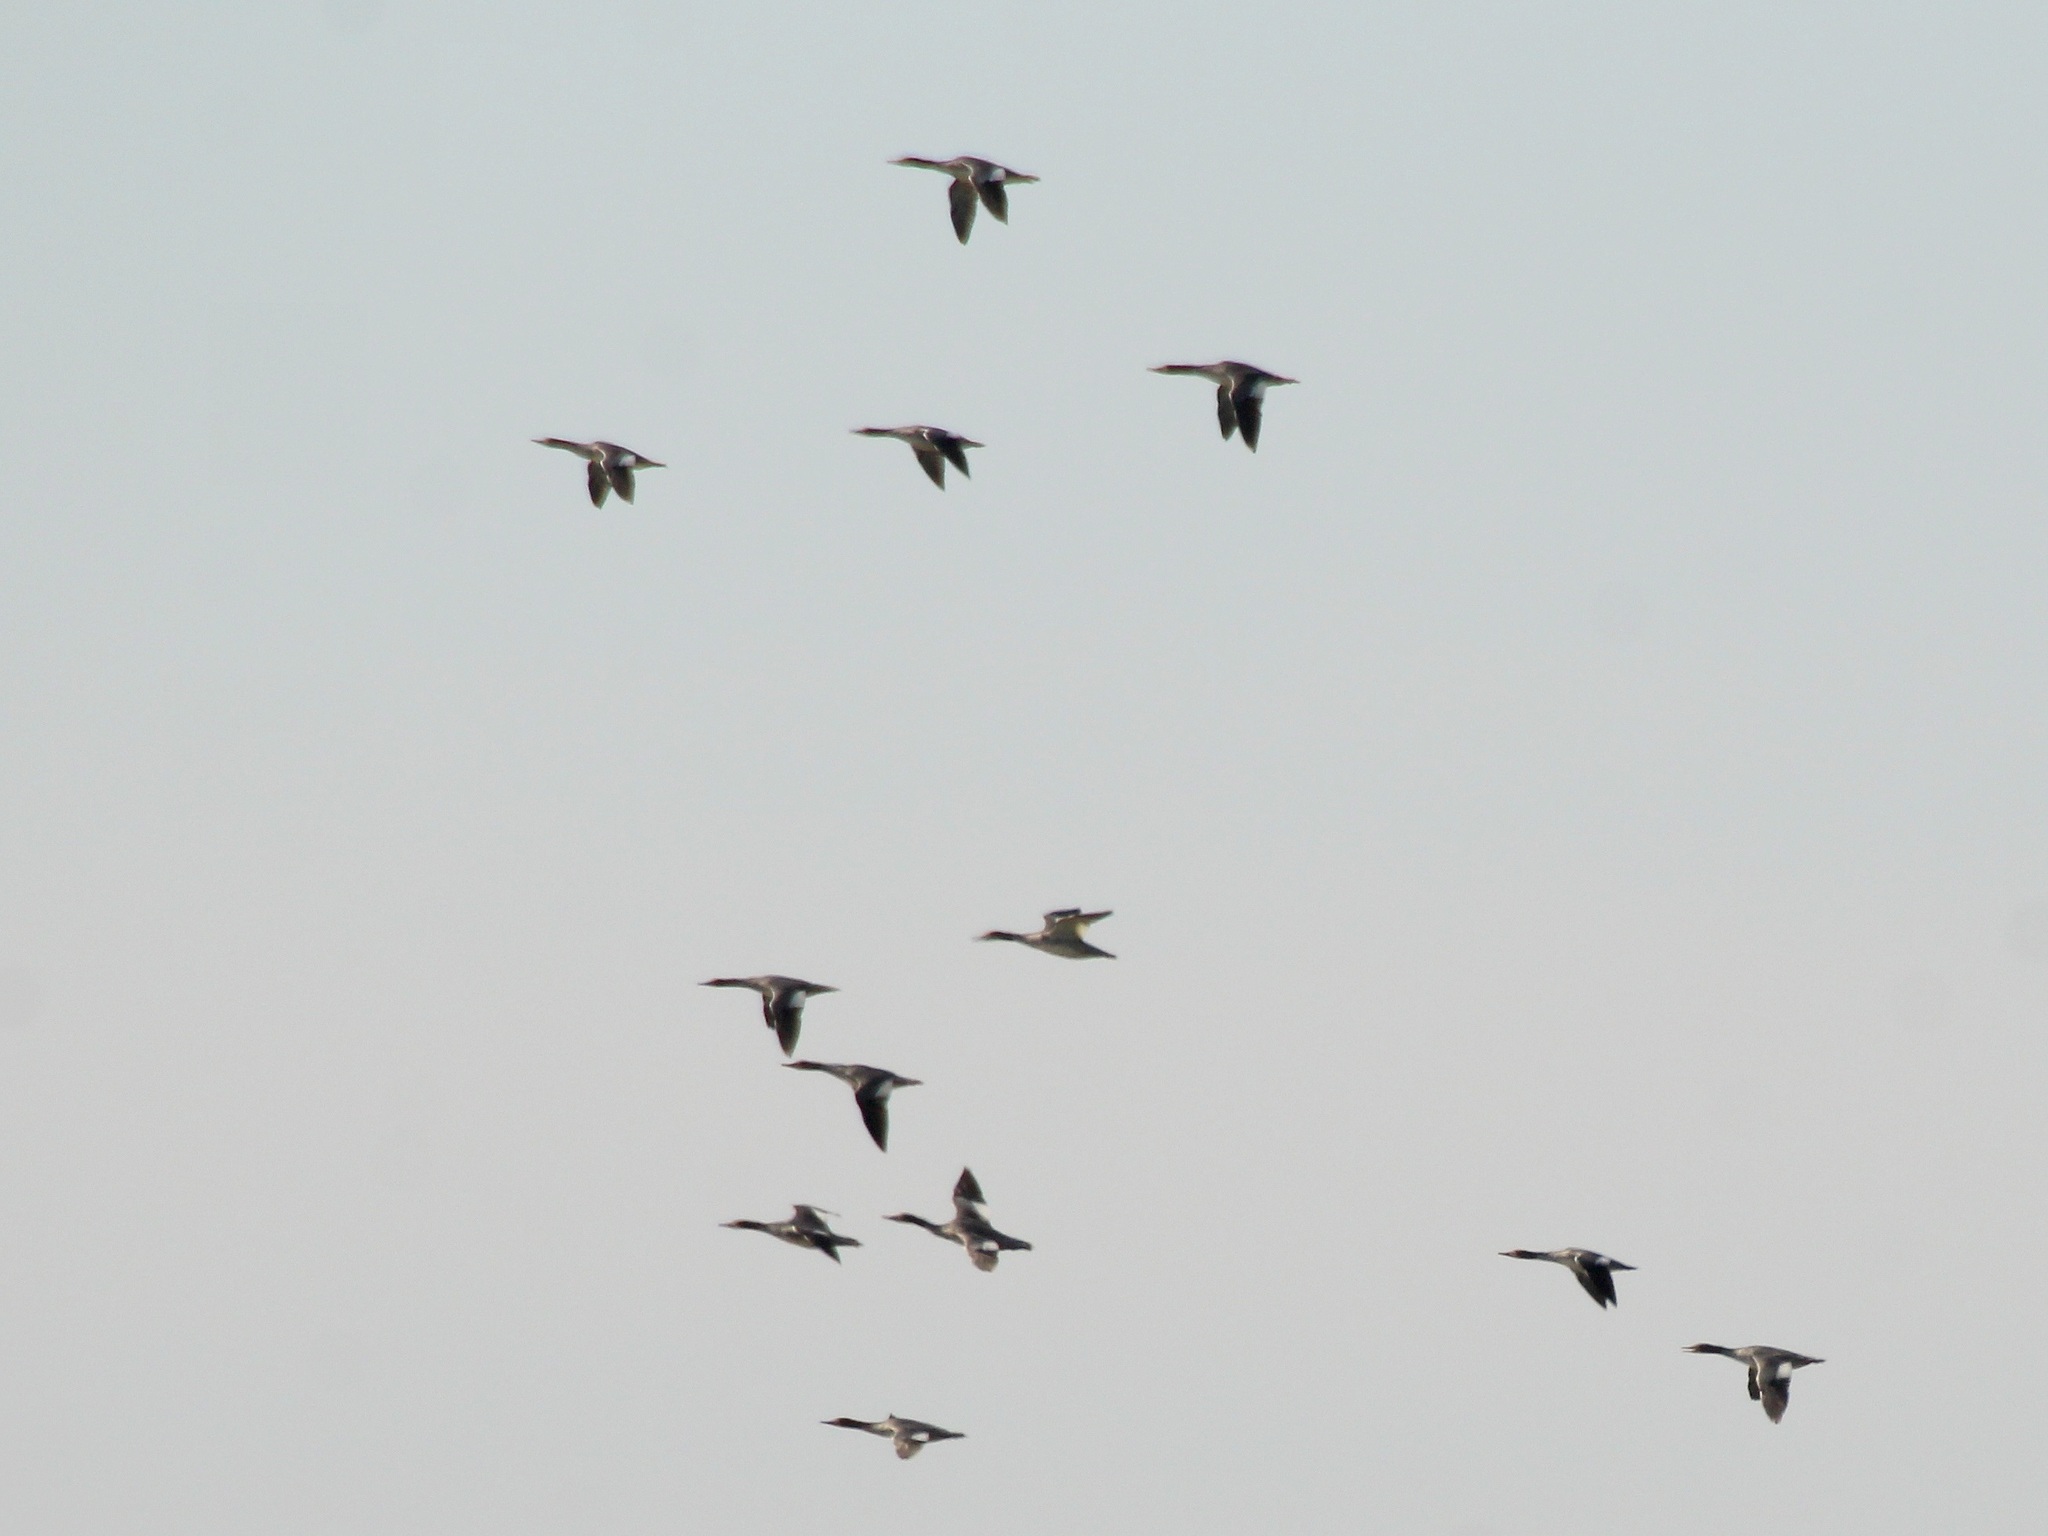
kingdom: Animalia
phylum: Chordata
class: Aves
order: Anseriformes
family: Anatidae
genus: Mergus
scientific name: Mergus merganser
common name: Common merganser
